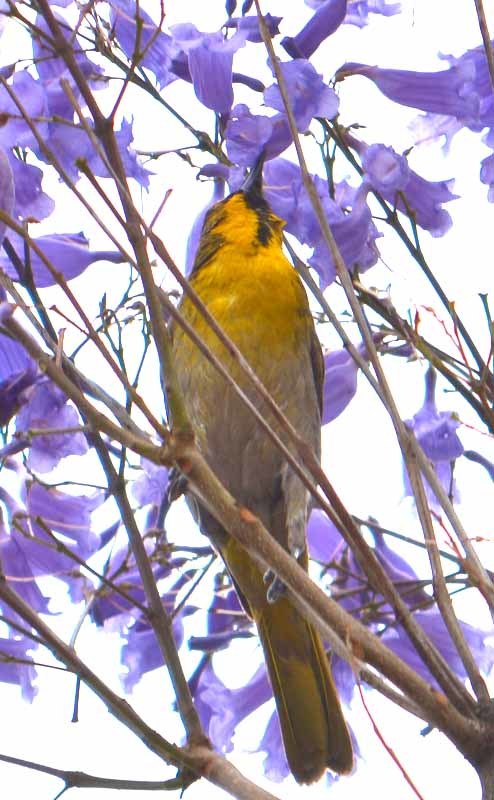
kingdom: Animalia
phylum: Chordata
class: Aves
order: Passeriformes
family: Icteridae
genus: Icterus
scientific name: Icterus abeillei
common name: Black-backed oriole
